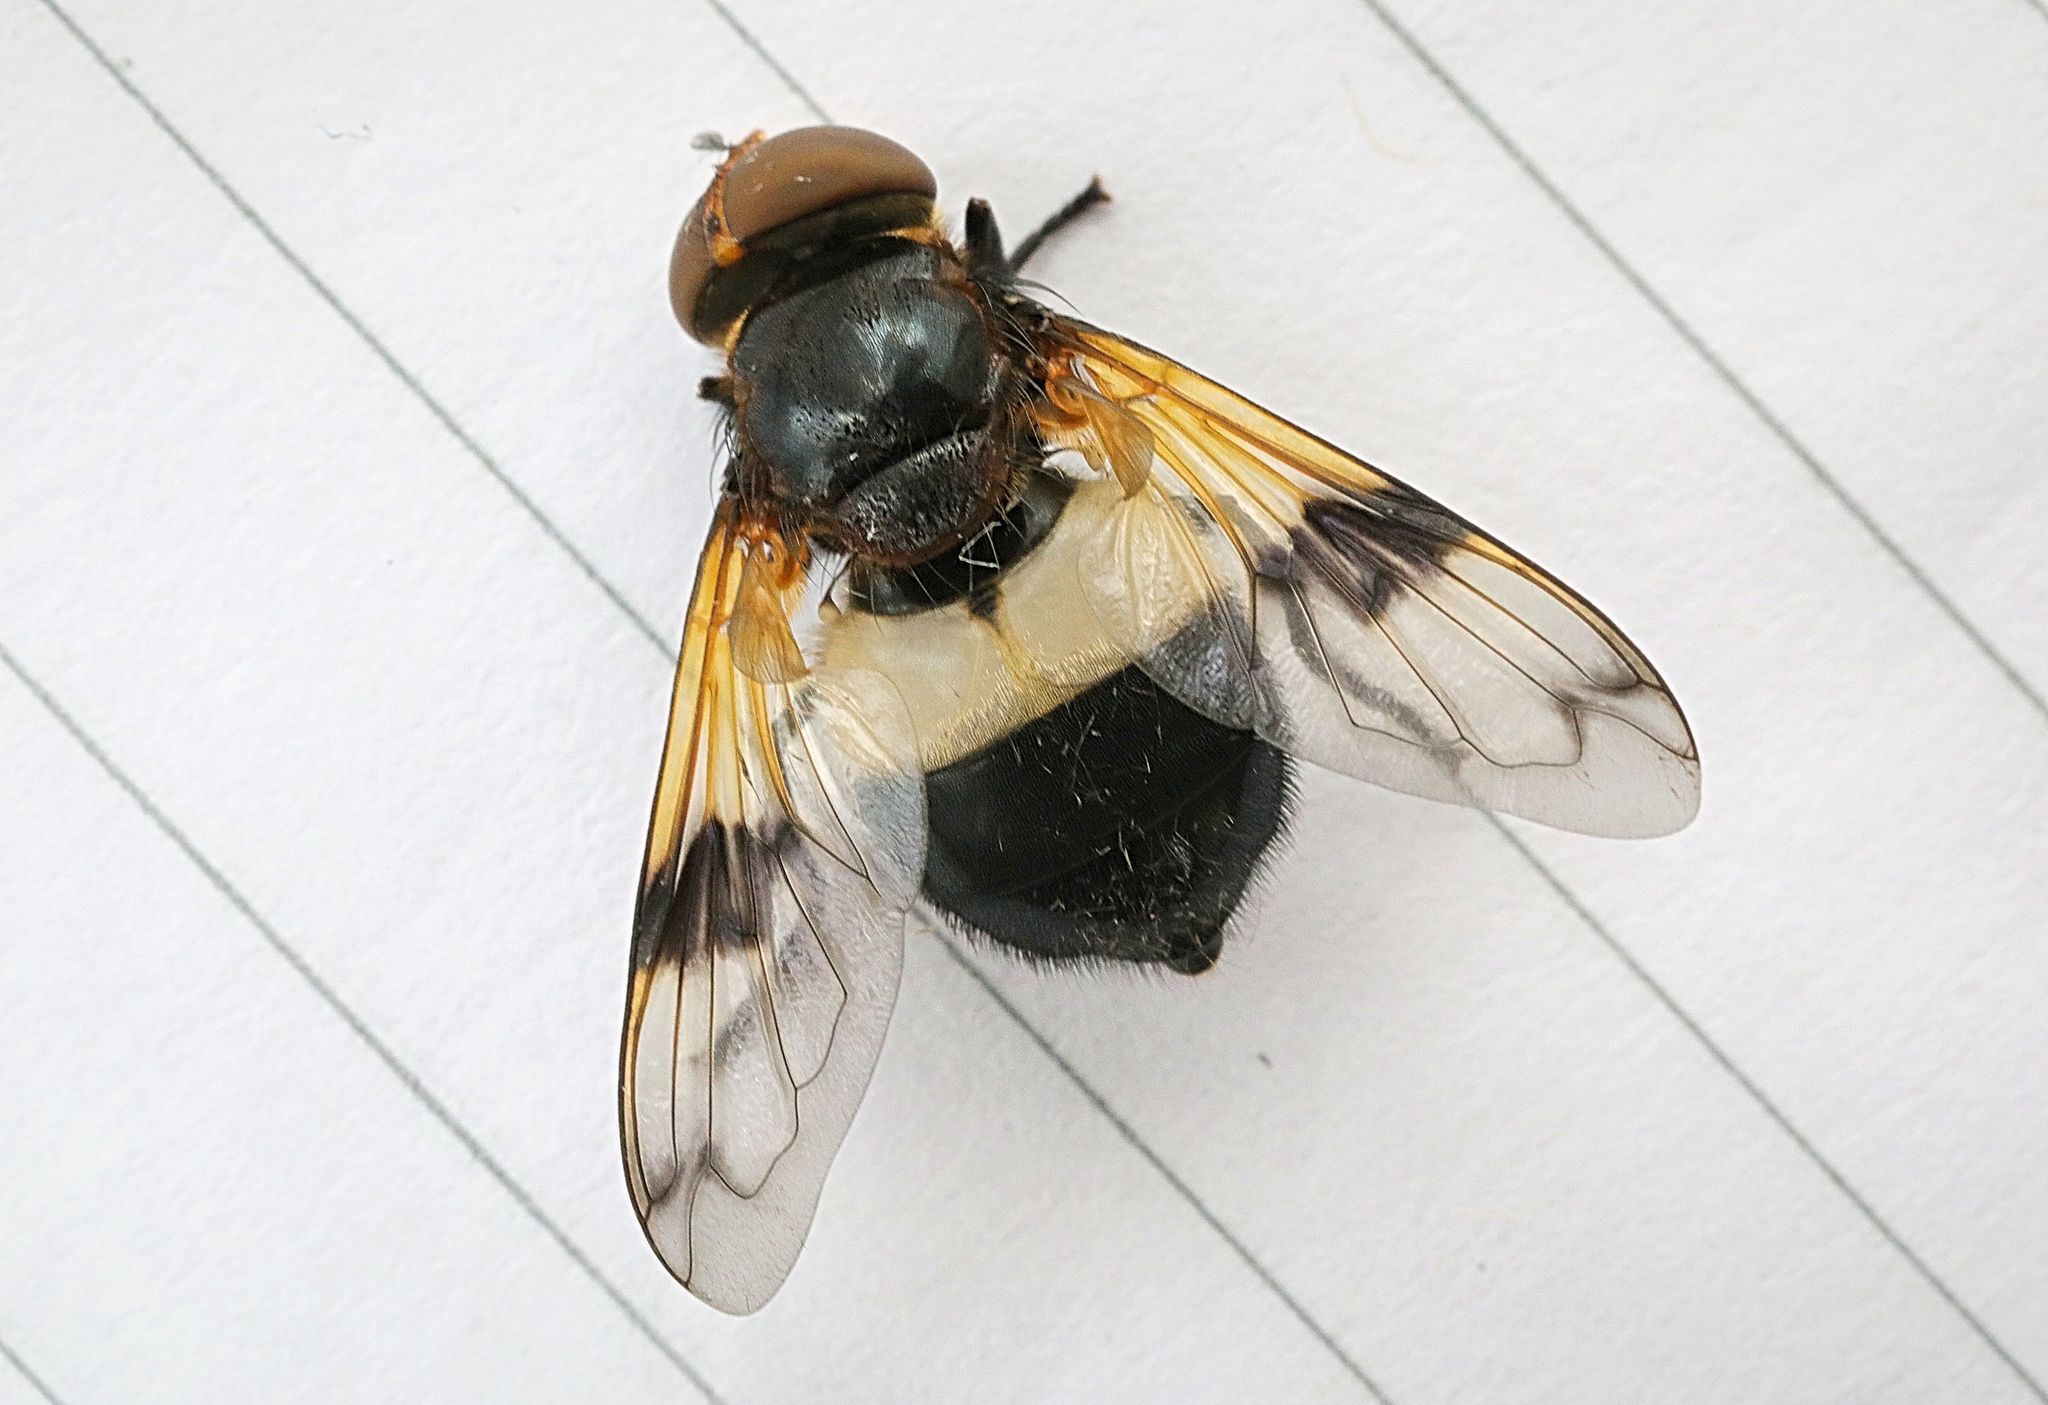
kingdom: Animalia
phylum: Arthropoda
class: Insecta
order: Diptera
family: Syrphidae
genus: Volucella
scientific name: Volucella pellucens
